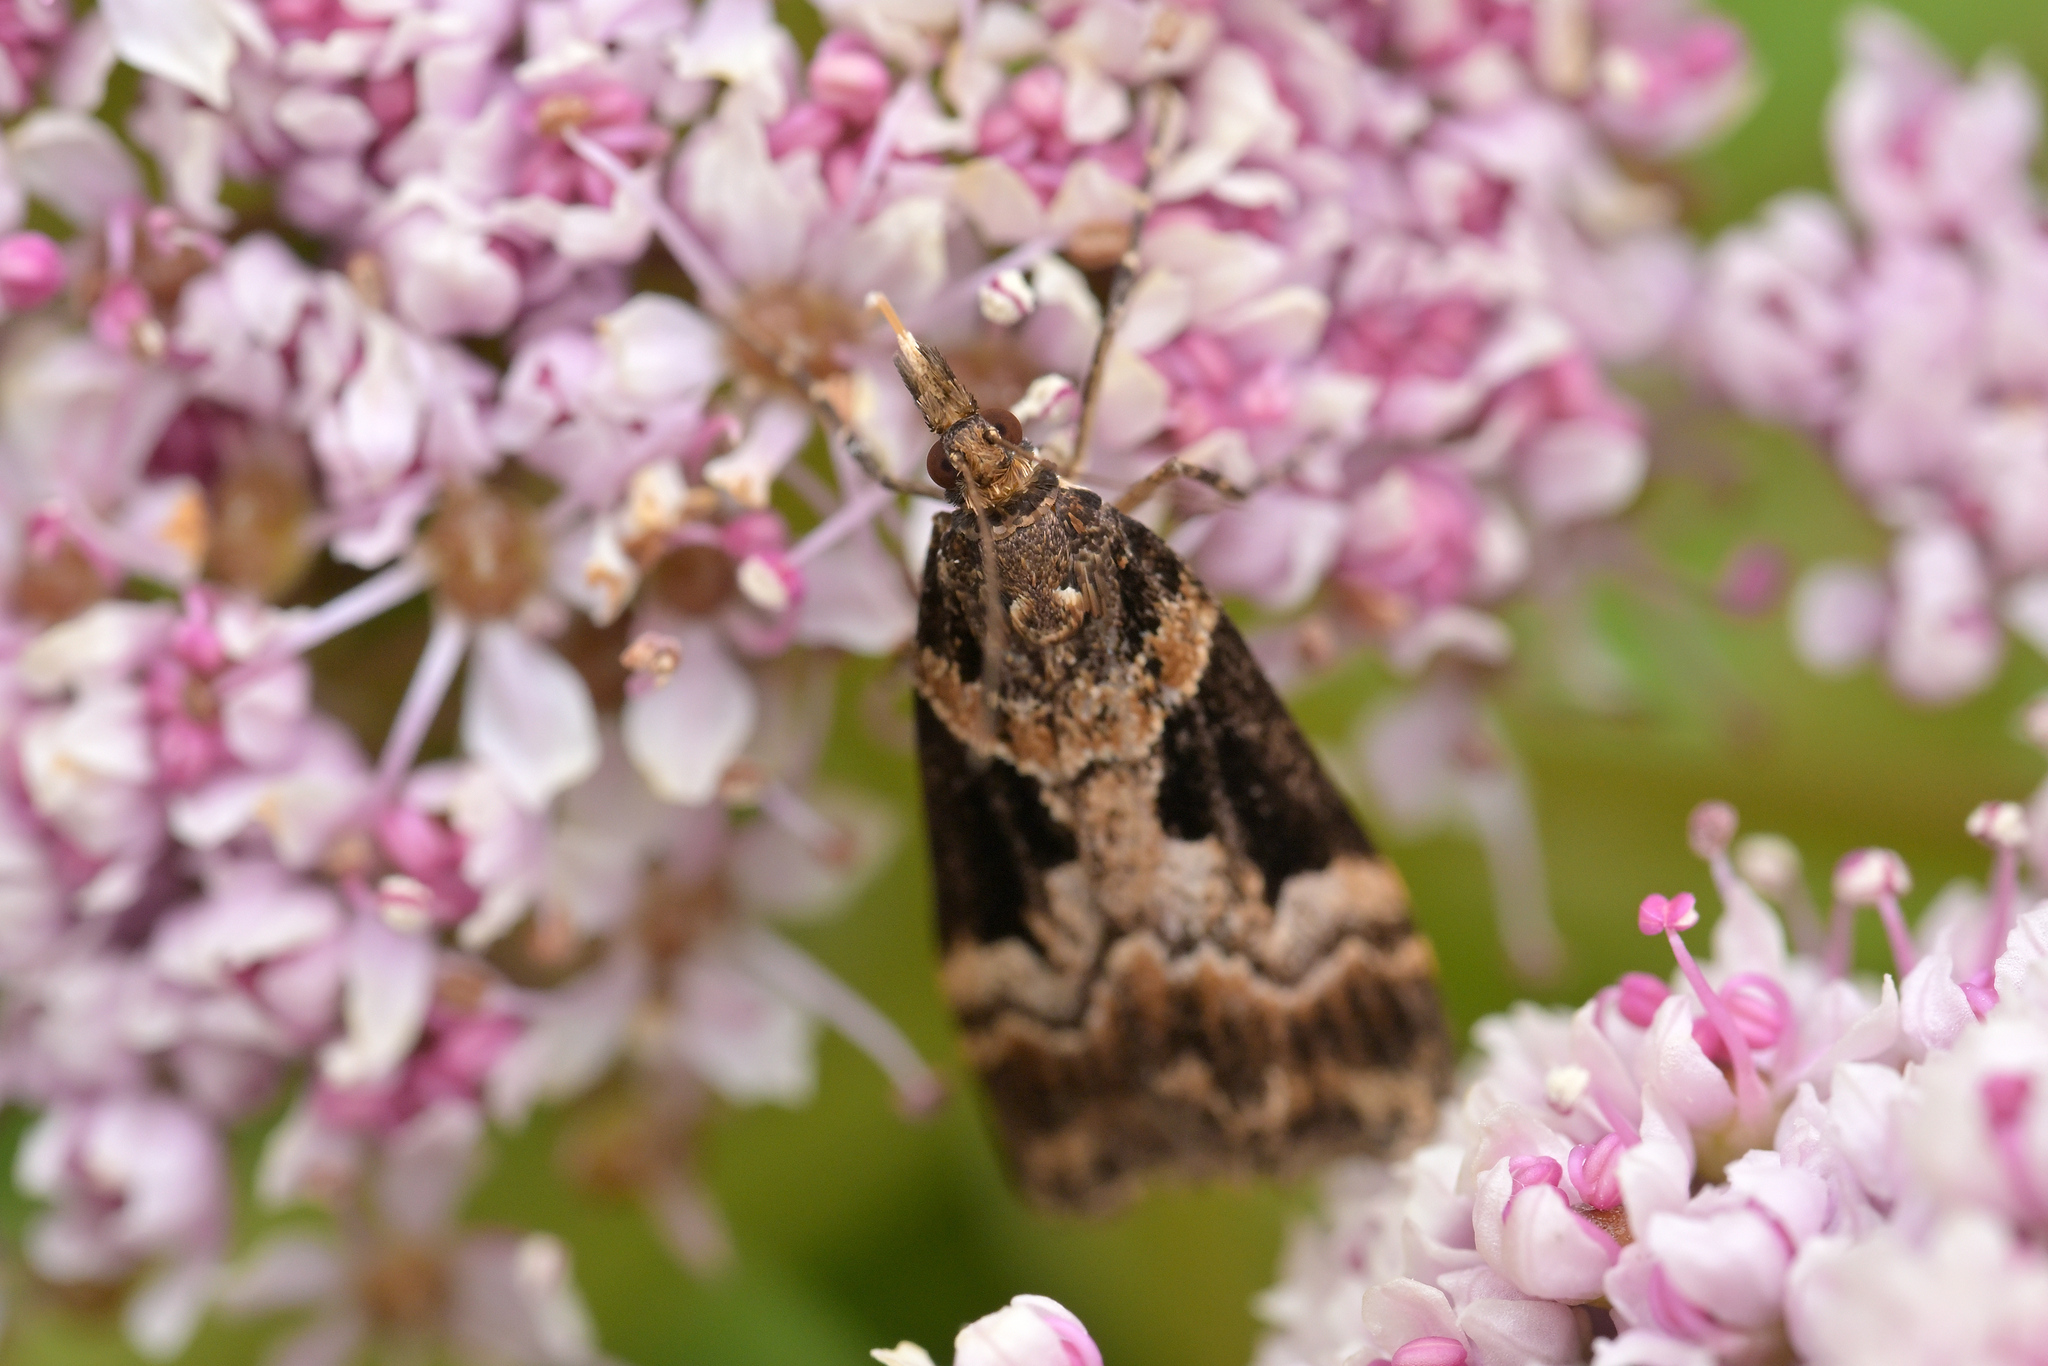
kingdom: Animalia
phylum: Arthropoda
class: Insecta
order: Lepidoptera
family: Crambidae
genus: Scoparia
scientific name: Scoparia parmifera
